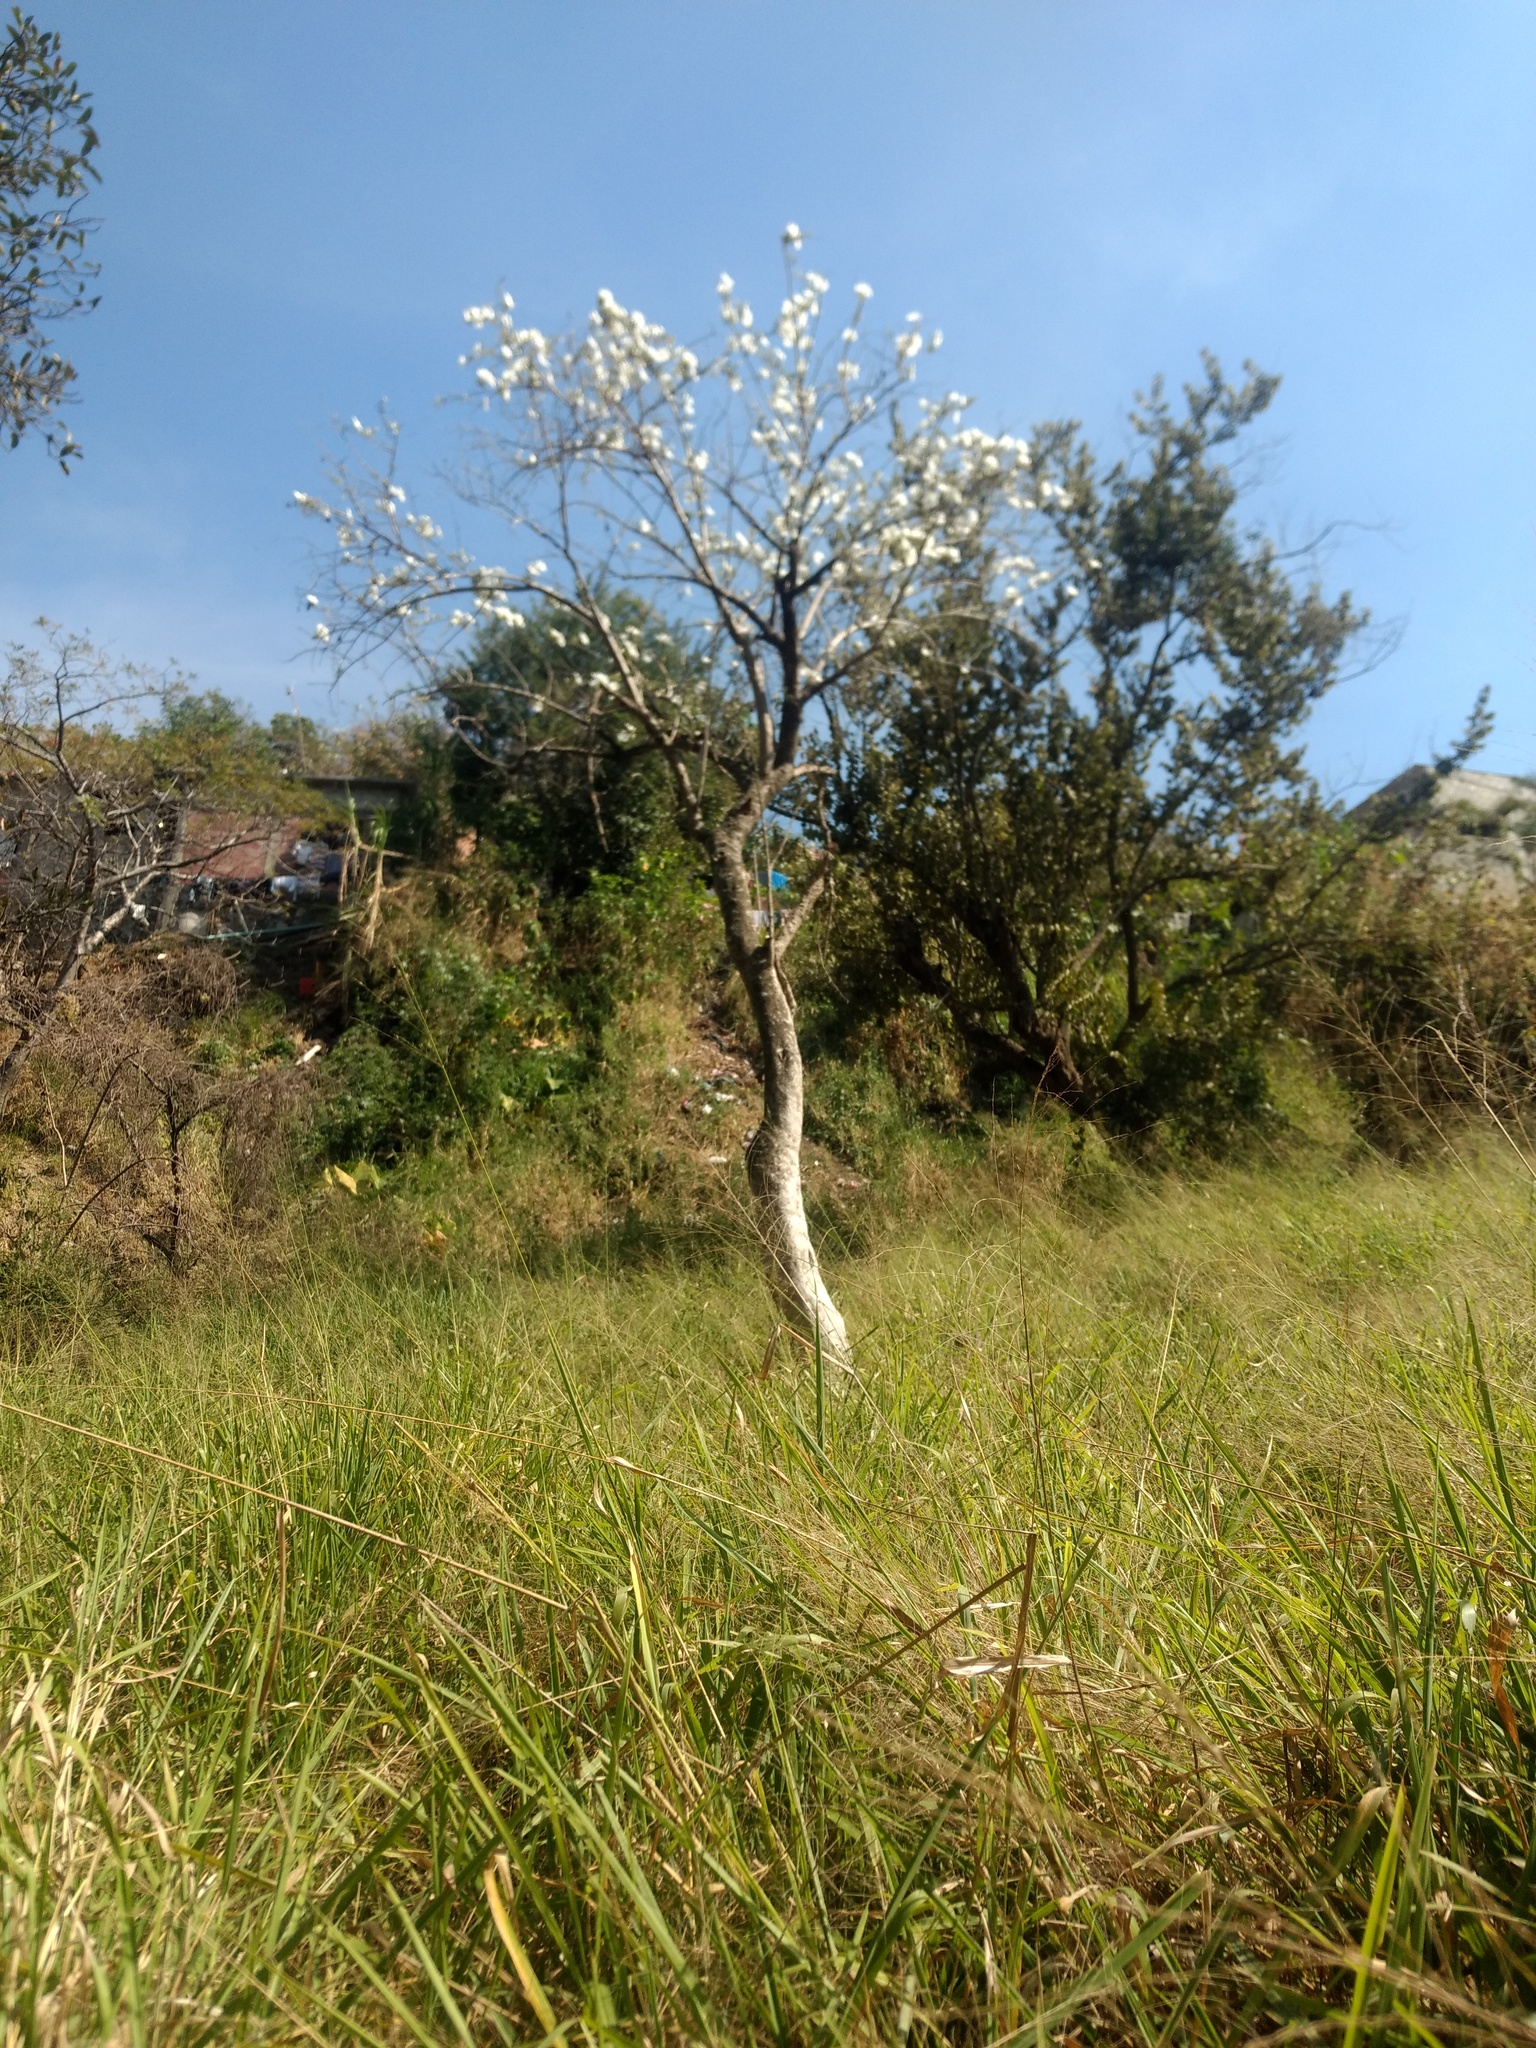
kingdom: Plantae
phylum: Tracheophyta
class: Magnoliopsida
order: Solanales
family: Convolvulaceae
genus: Ipomoea
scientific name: Ipomoea pauciflora
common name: Tree morningglory
